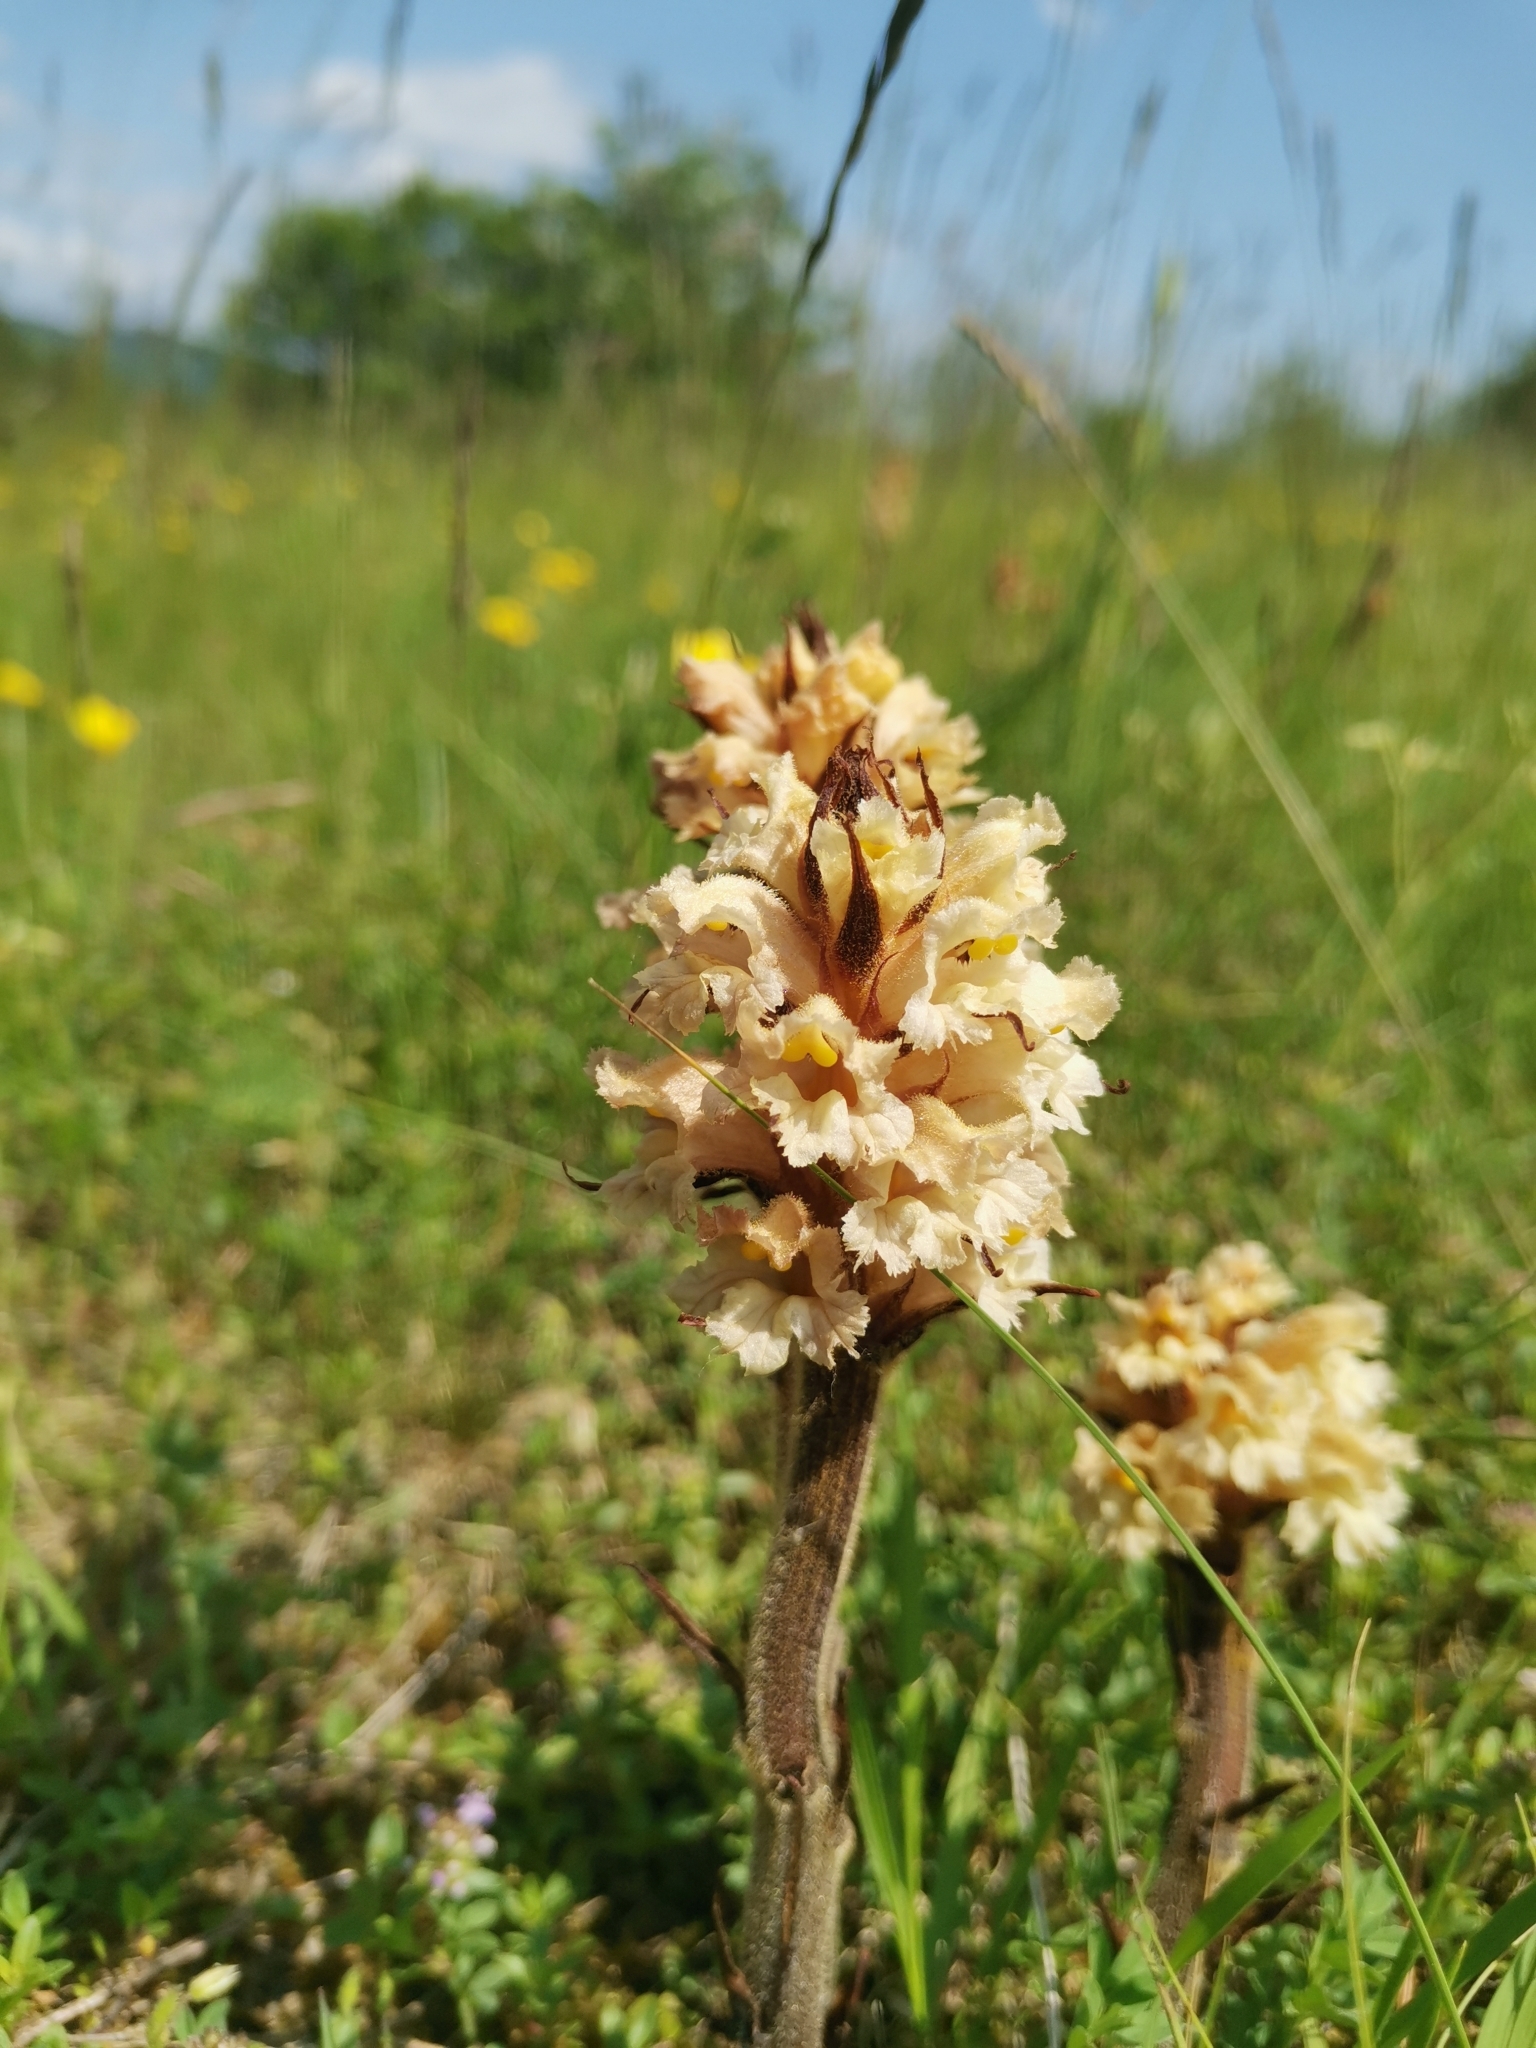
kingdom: Plantae
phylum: Tracheophyta
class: Magnoliopsida
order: Lamiales
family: Orobanchaceae
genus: Orobanche
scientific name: Orobanche lutea
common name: Yellow broomrape
